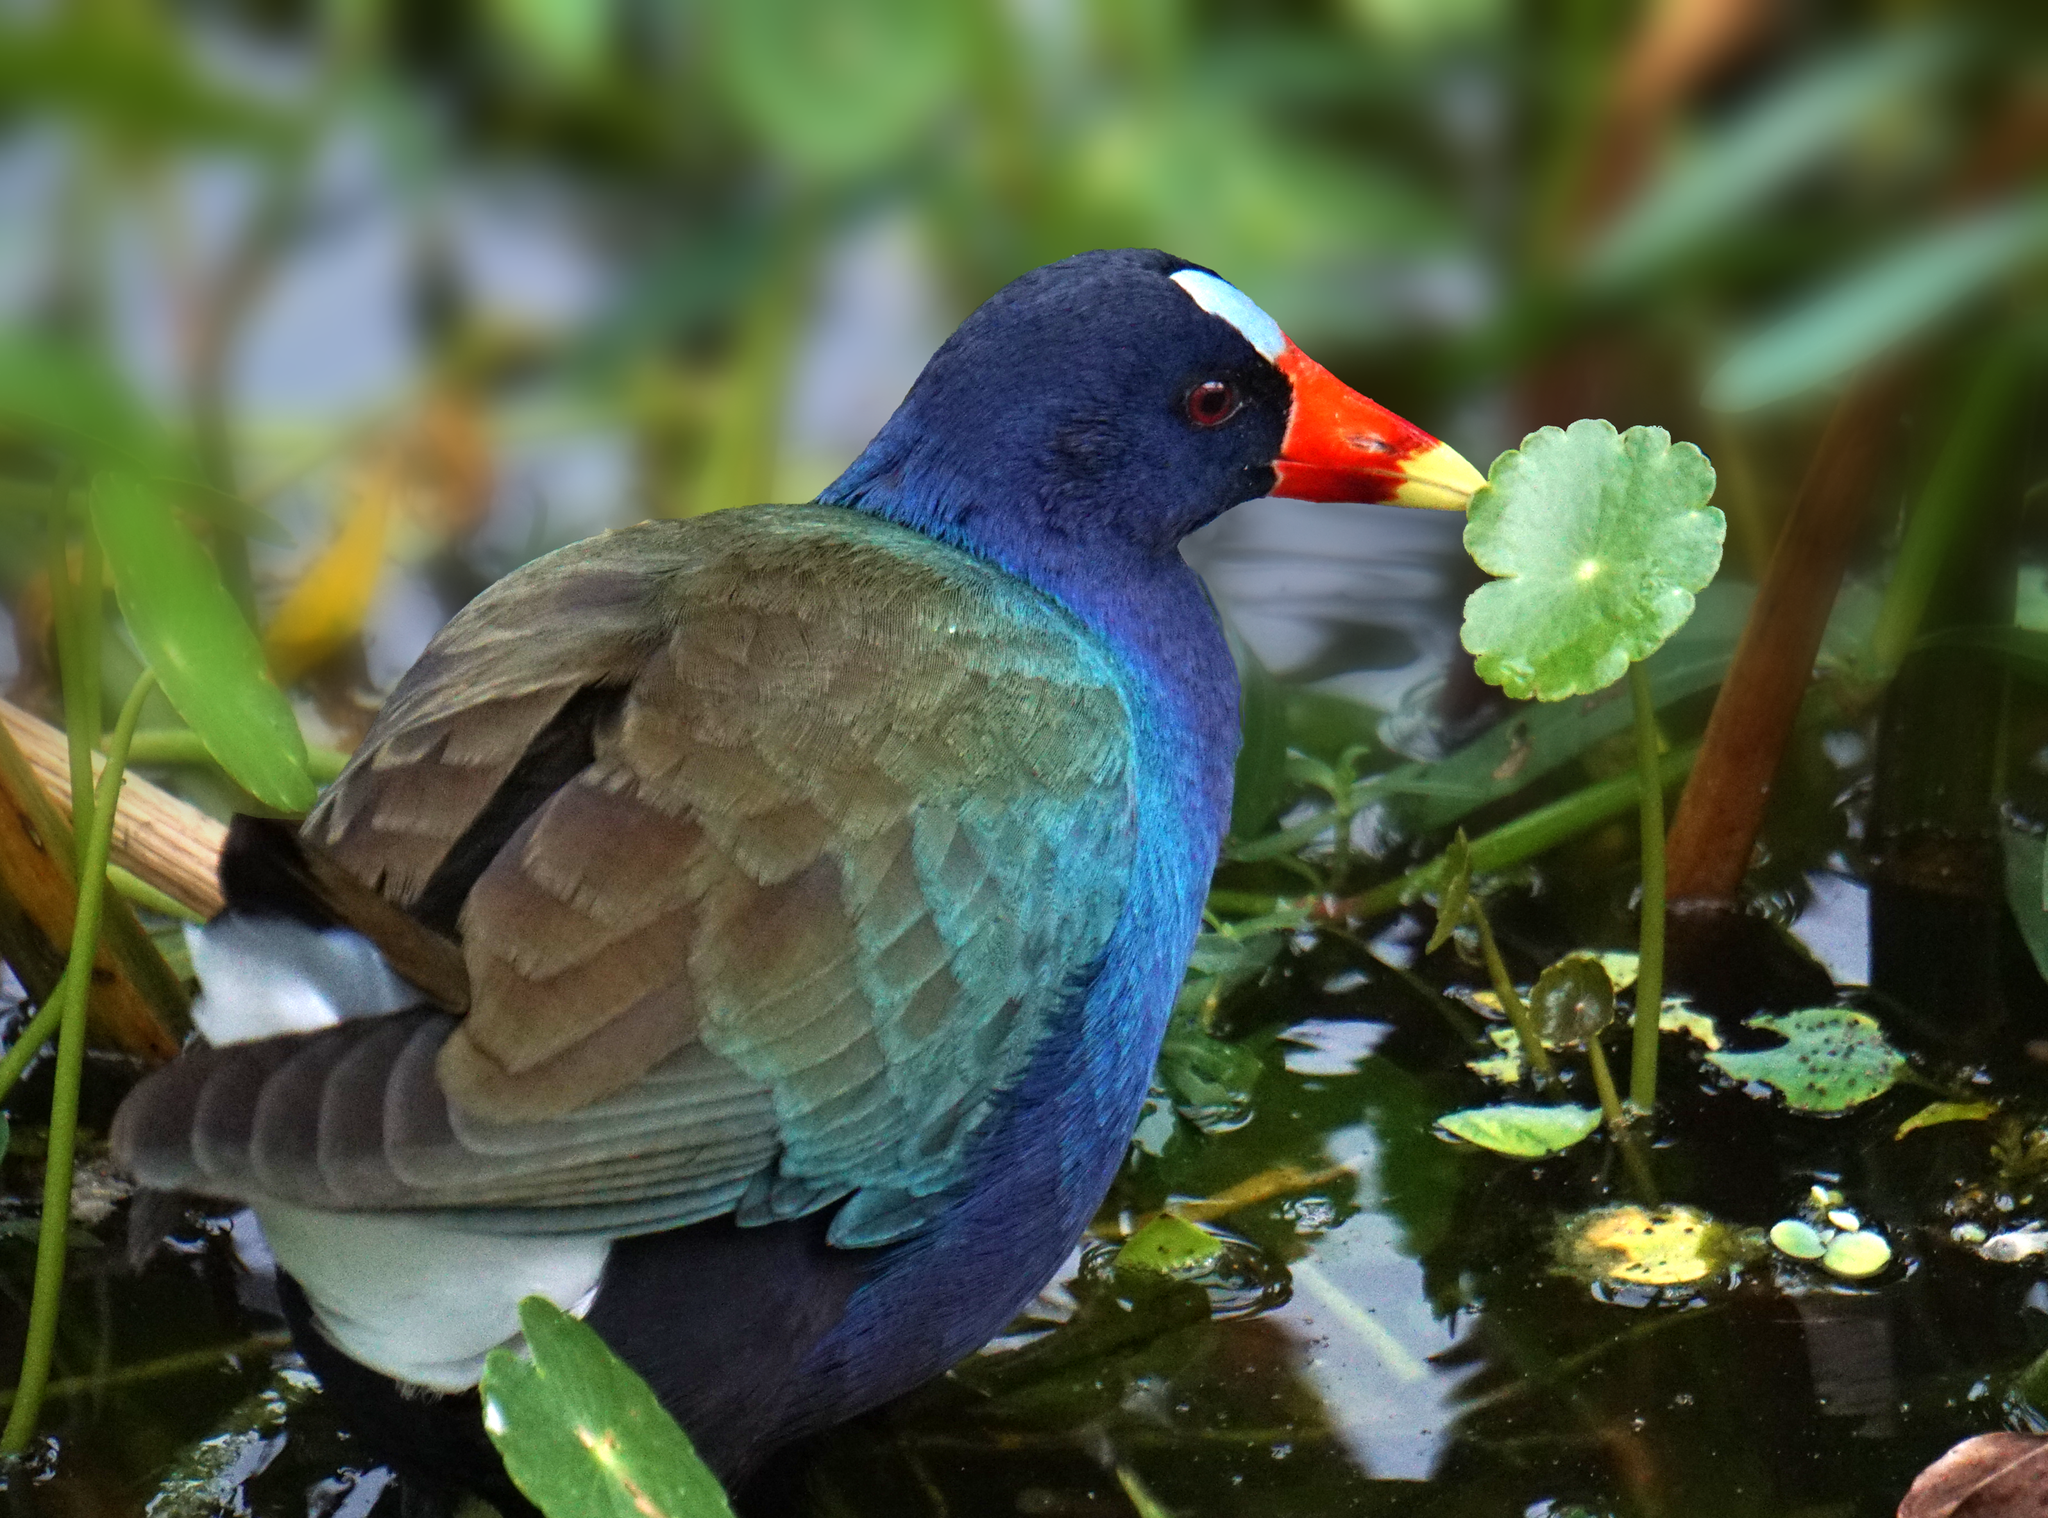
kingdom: Animalia
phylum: Chordata
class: Aves
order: Gruiformes
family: Rallidae
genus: Porphyrio
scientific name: Porphyrio martinica
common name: Purple gallinule
